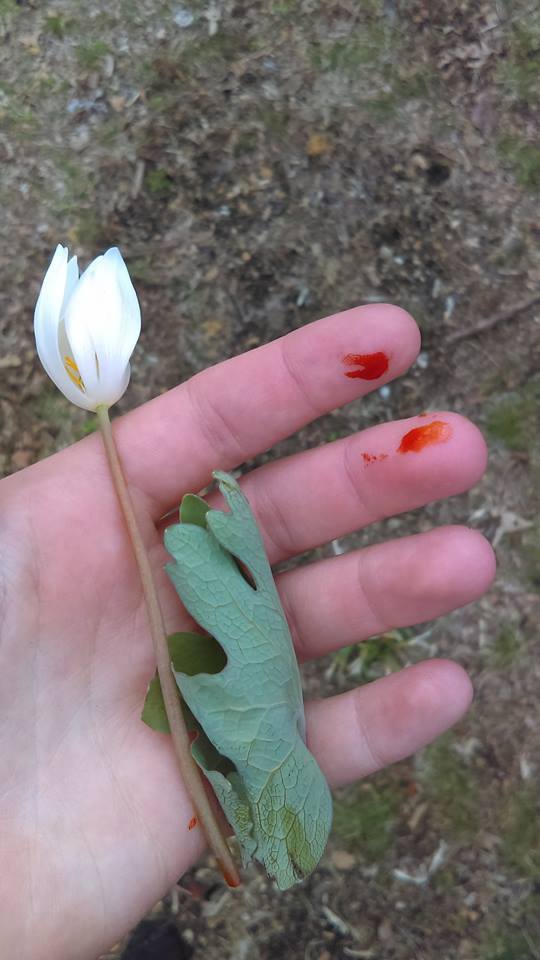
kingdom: Plantae
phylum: Tracheophyta
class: Magnoliopsida
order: Ranunculales
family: Papaveraceae
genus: Sanguinaria
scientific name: Sanguinaria canadensis
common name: Bloodroot
